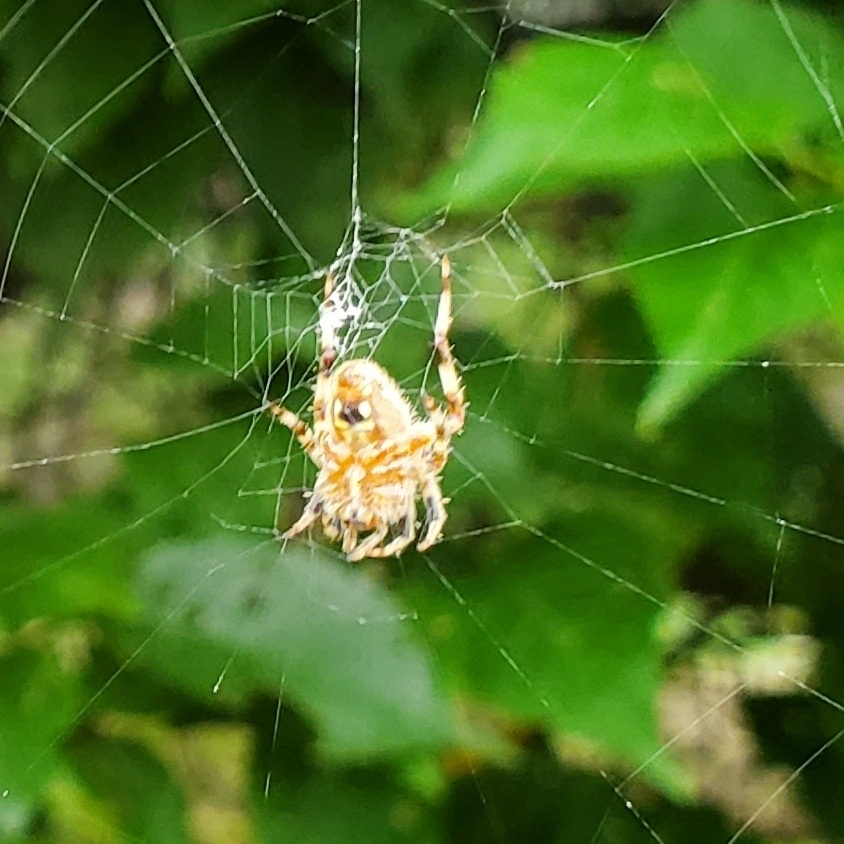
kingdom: Animalia
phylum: Arthropoda
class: Arachnida
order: Araneae
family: Araneidae
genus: Neoscona
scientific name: Neoscona crucifera
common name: Spotted orbweaver
